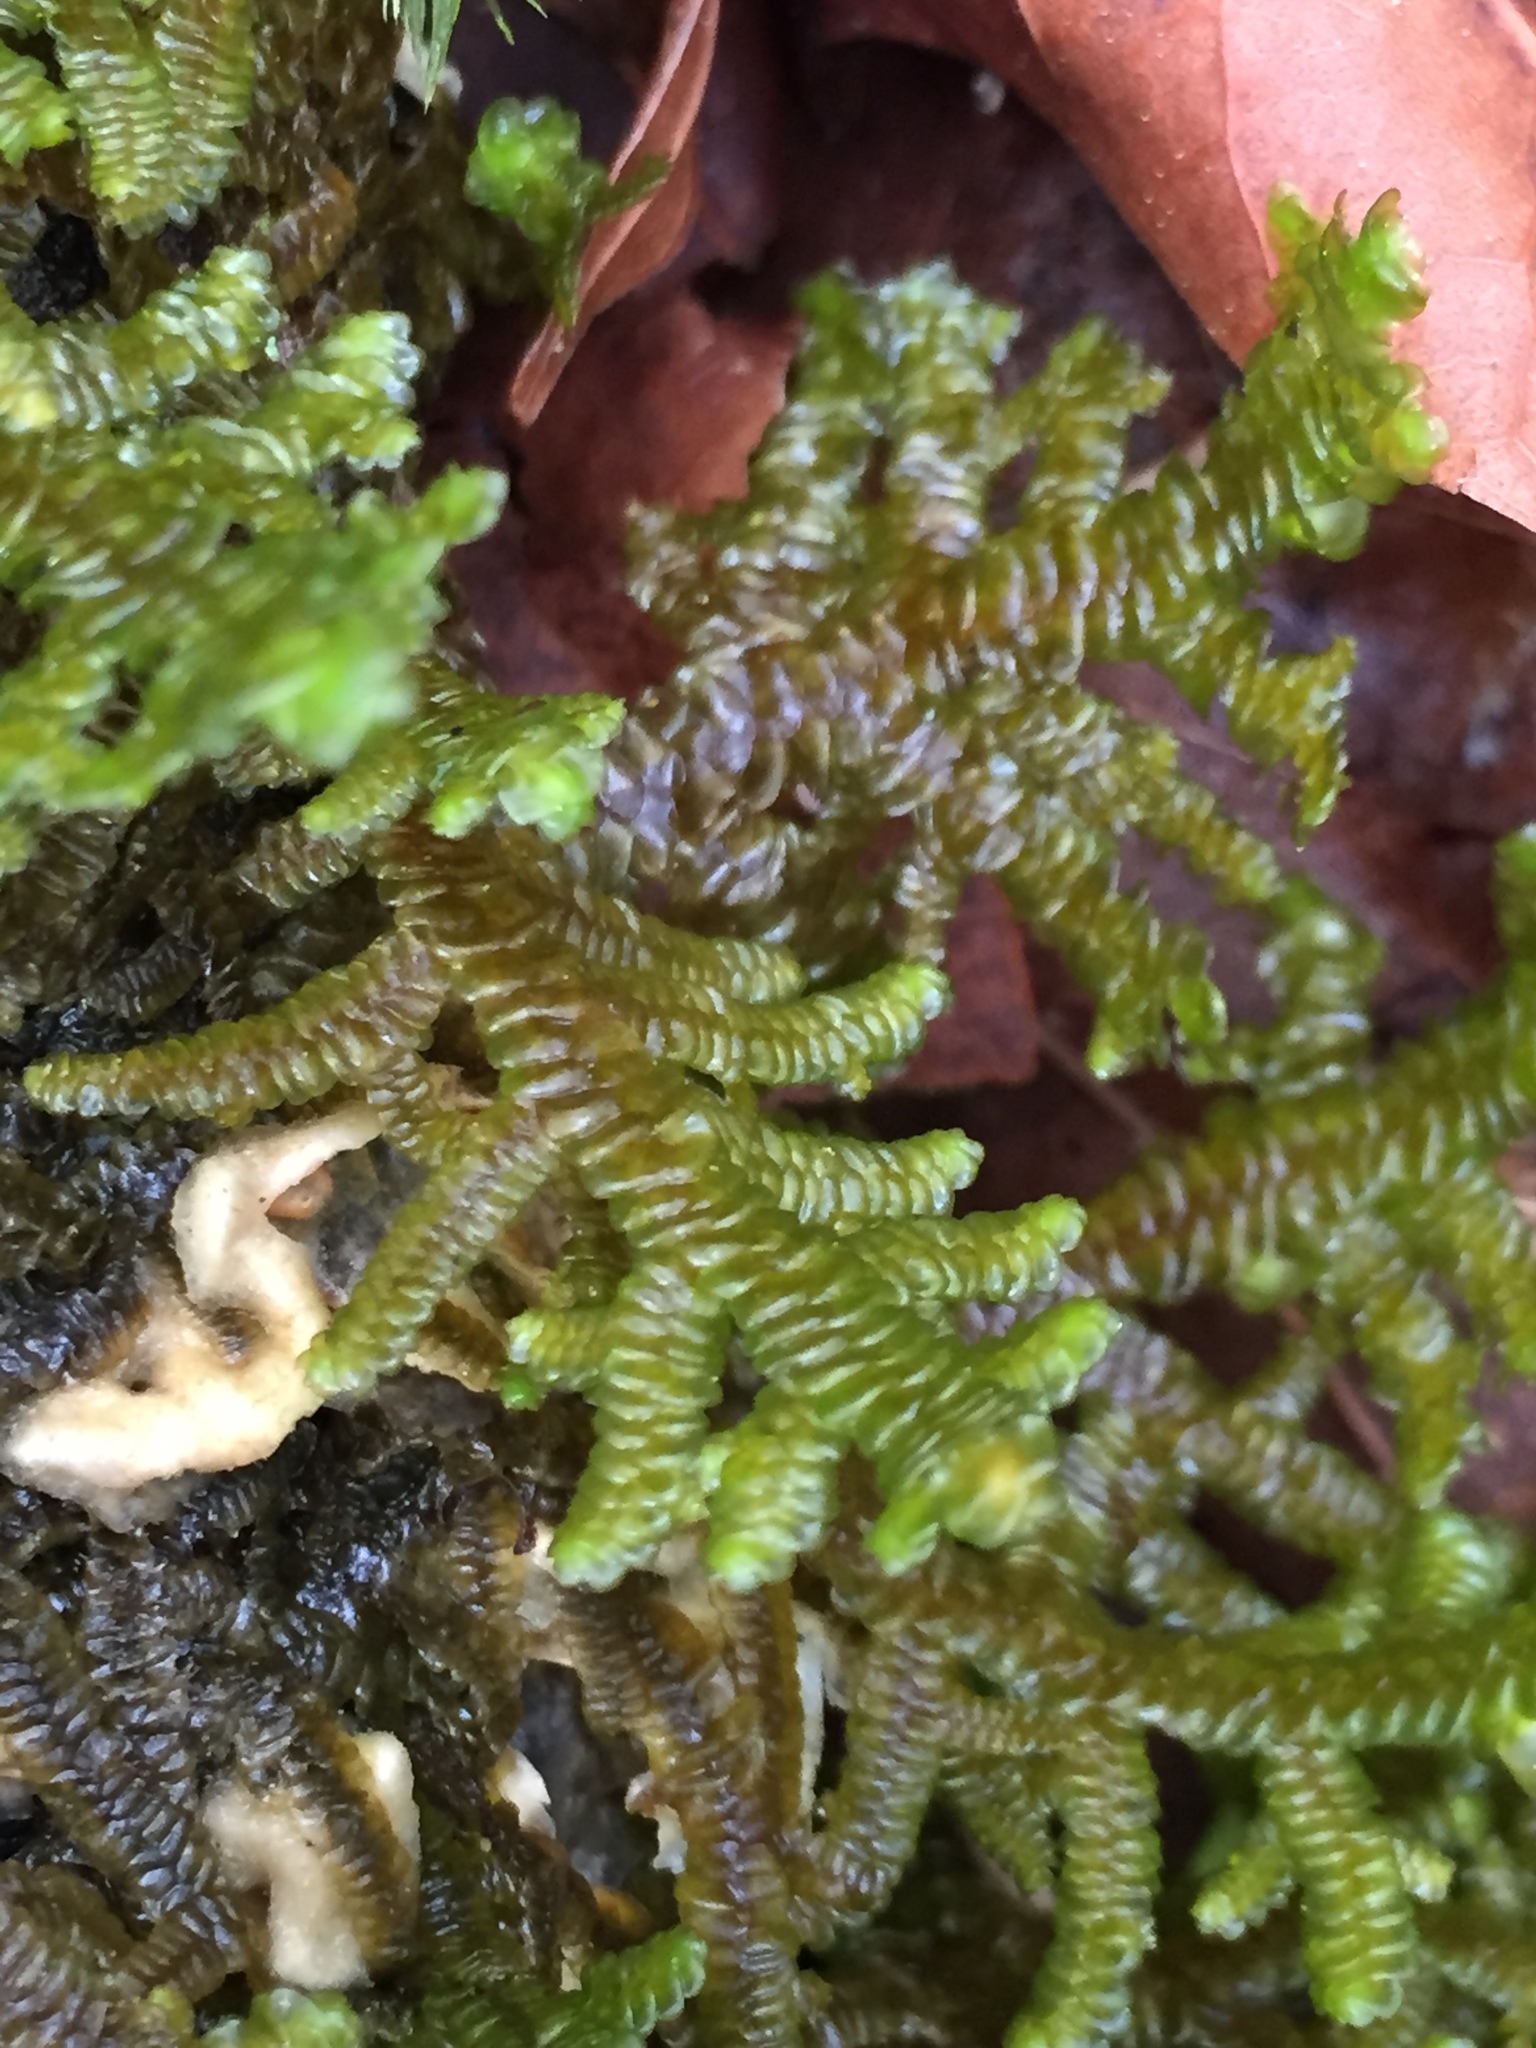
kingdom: Plantae
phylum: Marchantiophyta
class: Jungermanniopsida
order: Porellales
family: Porellaceae
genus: Porella
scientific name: Porella navicularis
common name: Tree ruffle liverwort
